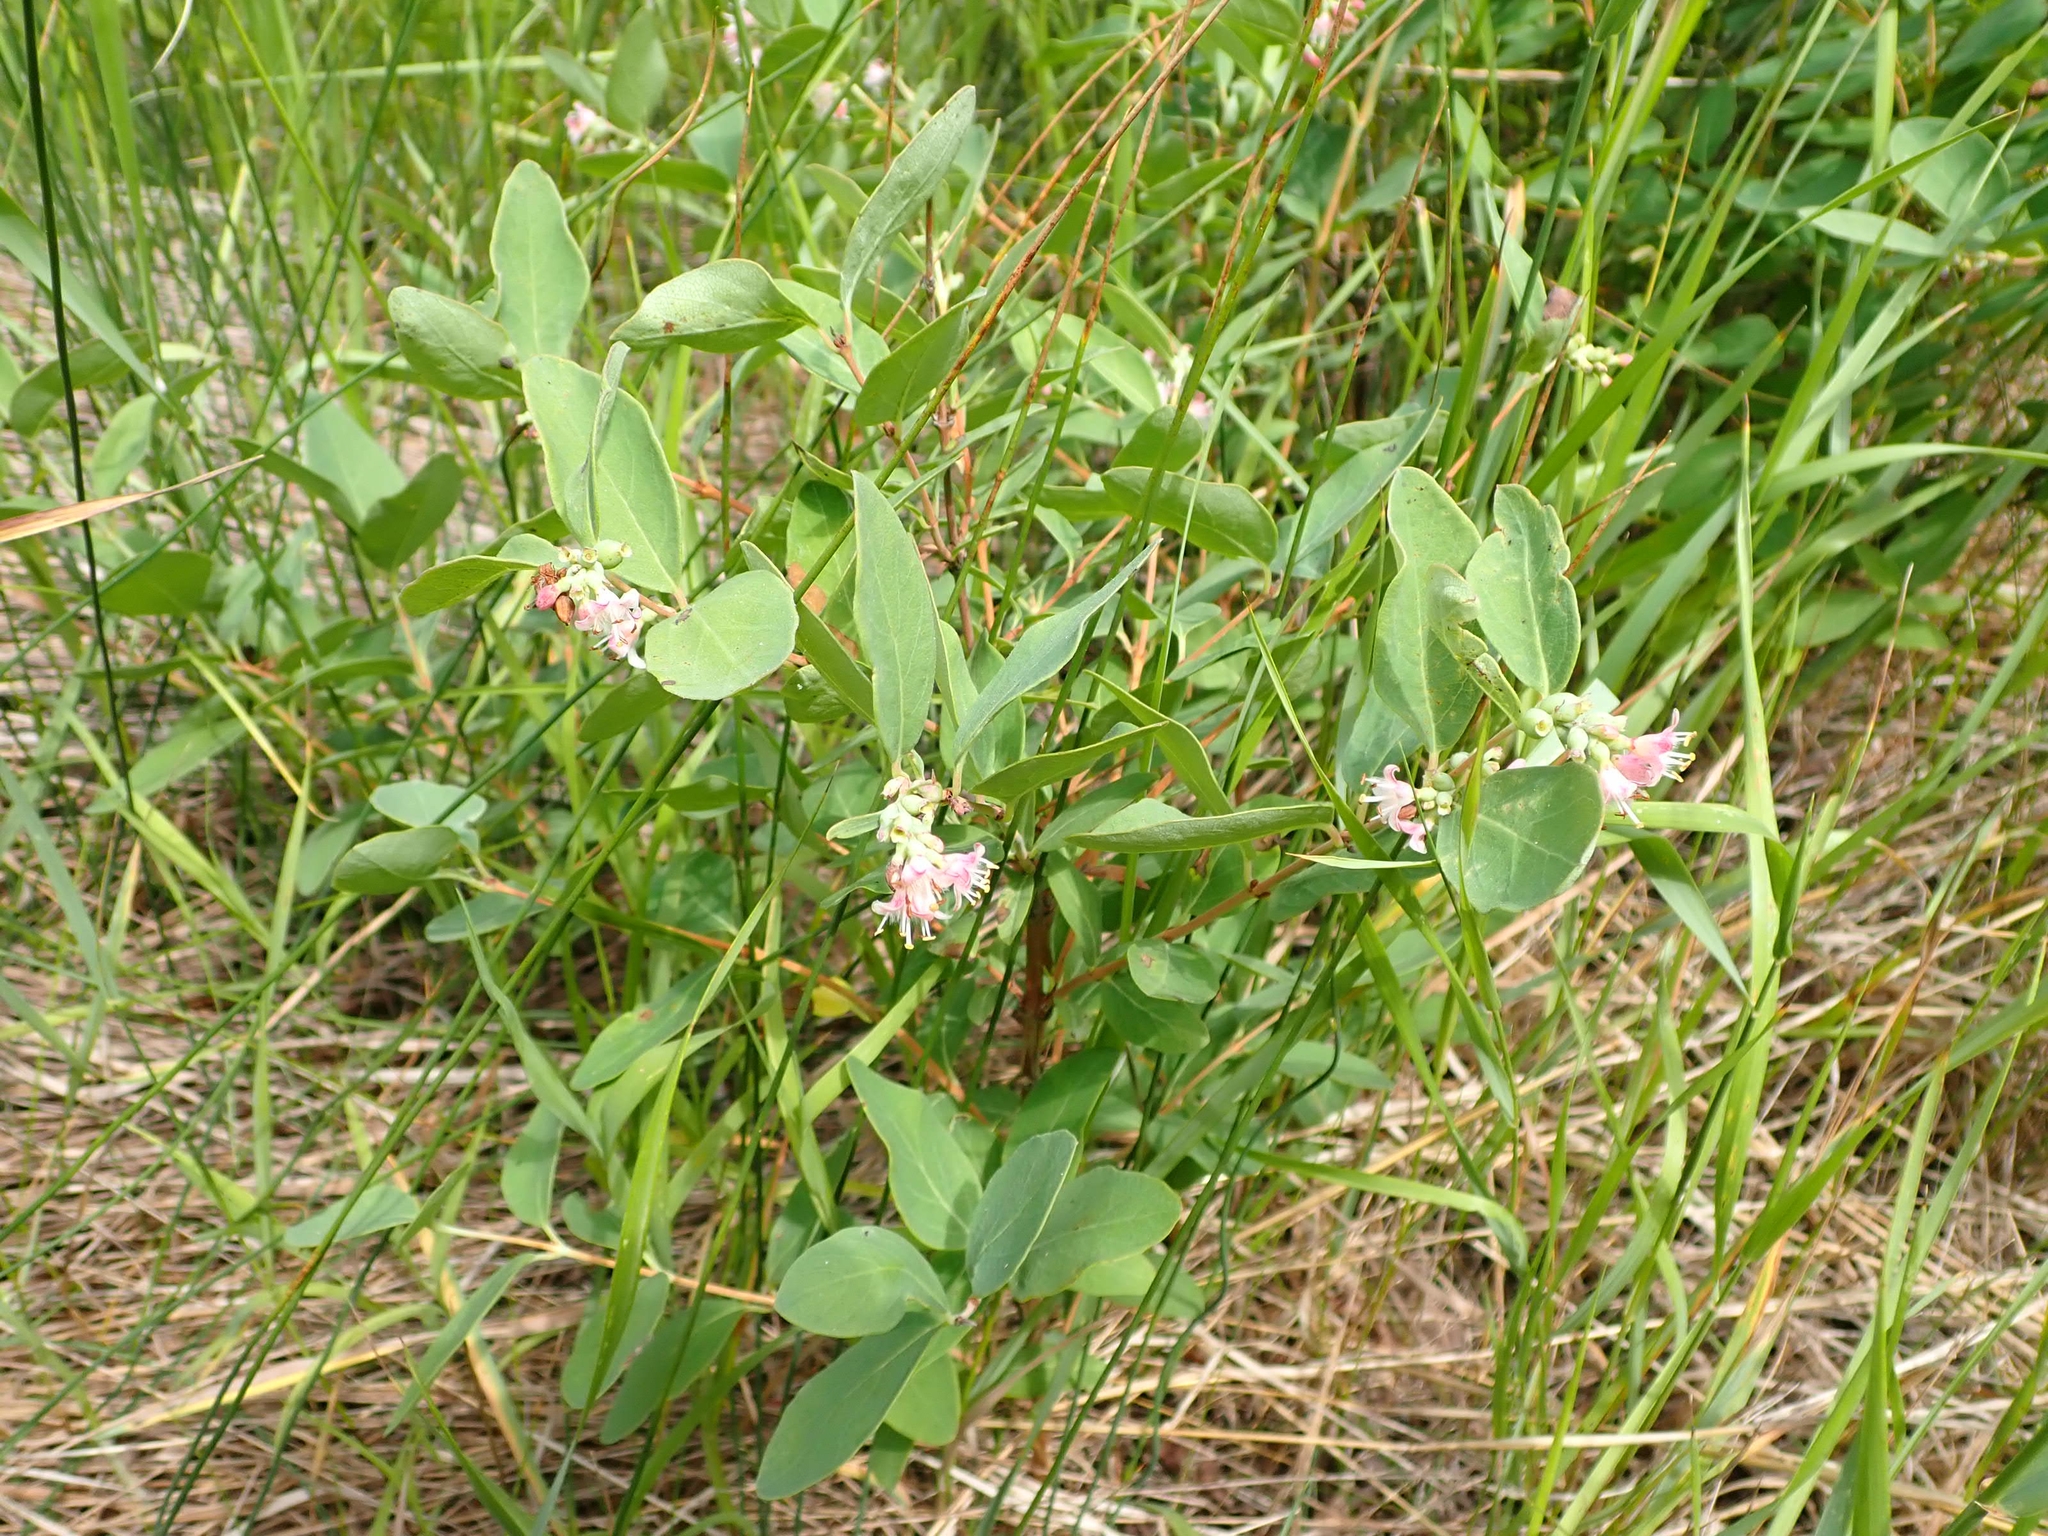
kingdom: Plantae
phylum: Tracheophyta
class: Magnoliopsida
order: Dipsacales
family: Caprifoliaceae
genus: Symphoricarpos
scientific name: Symphoricarpos occidentalis
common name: Wolfberry
